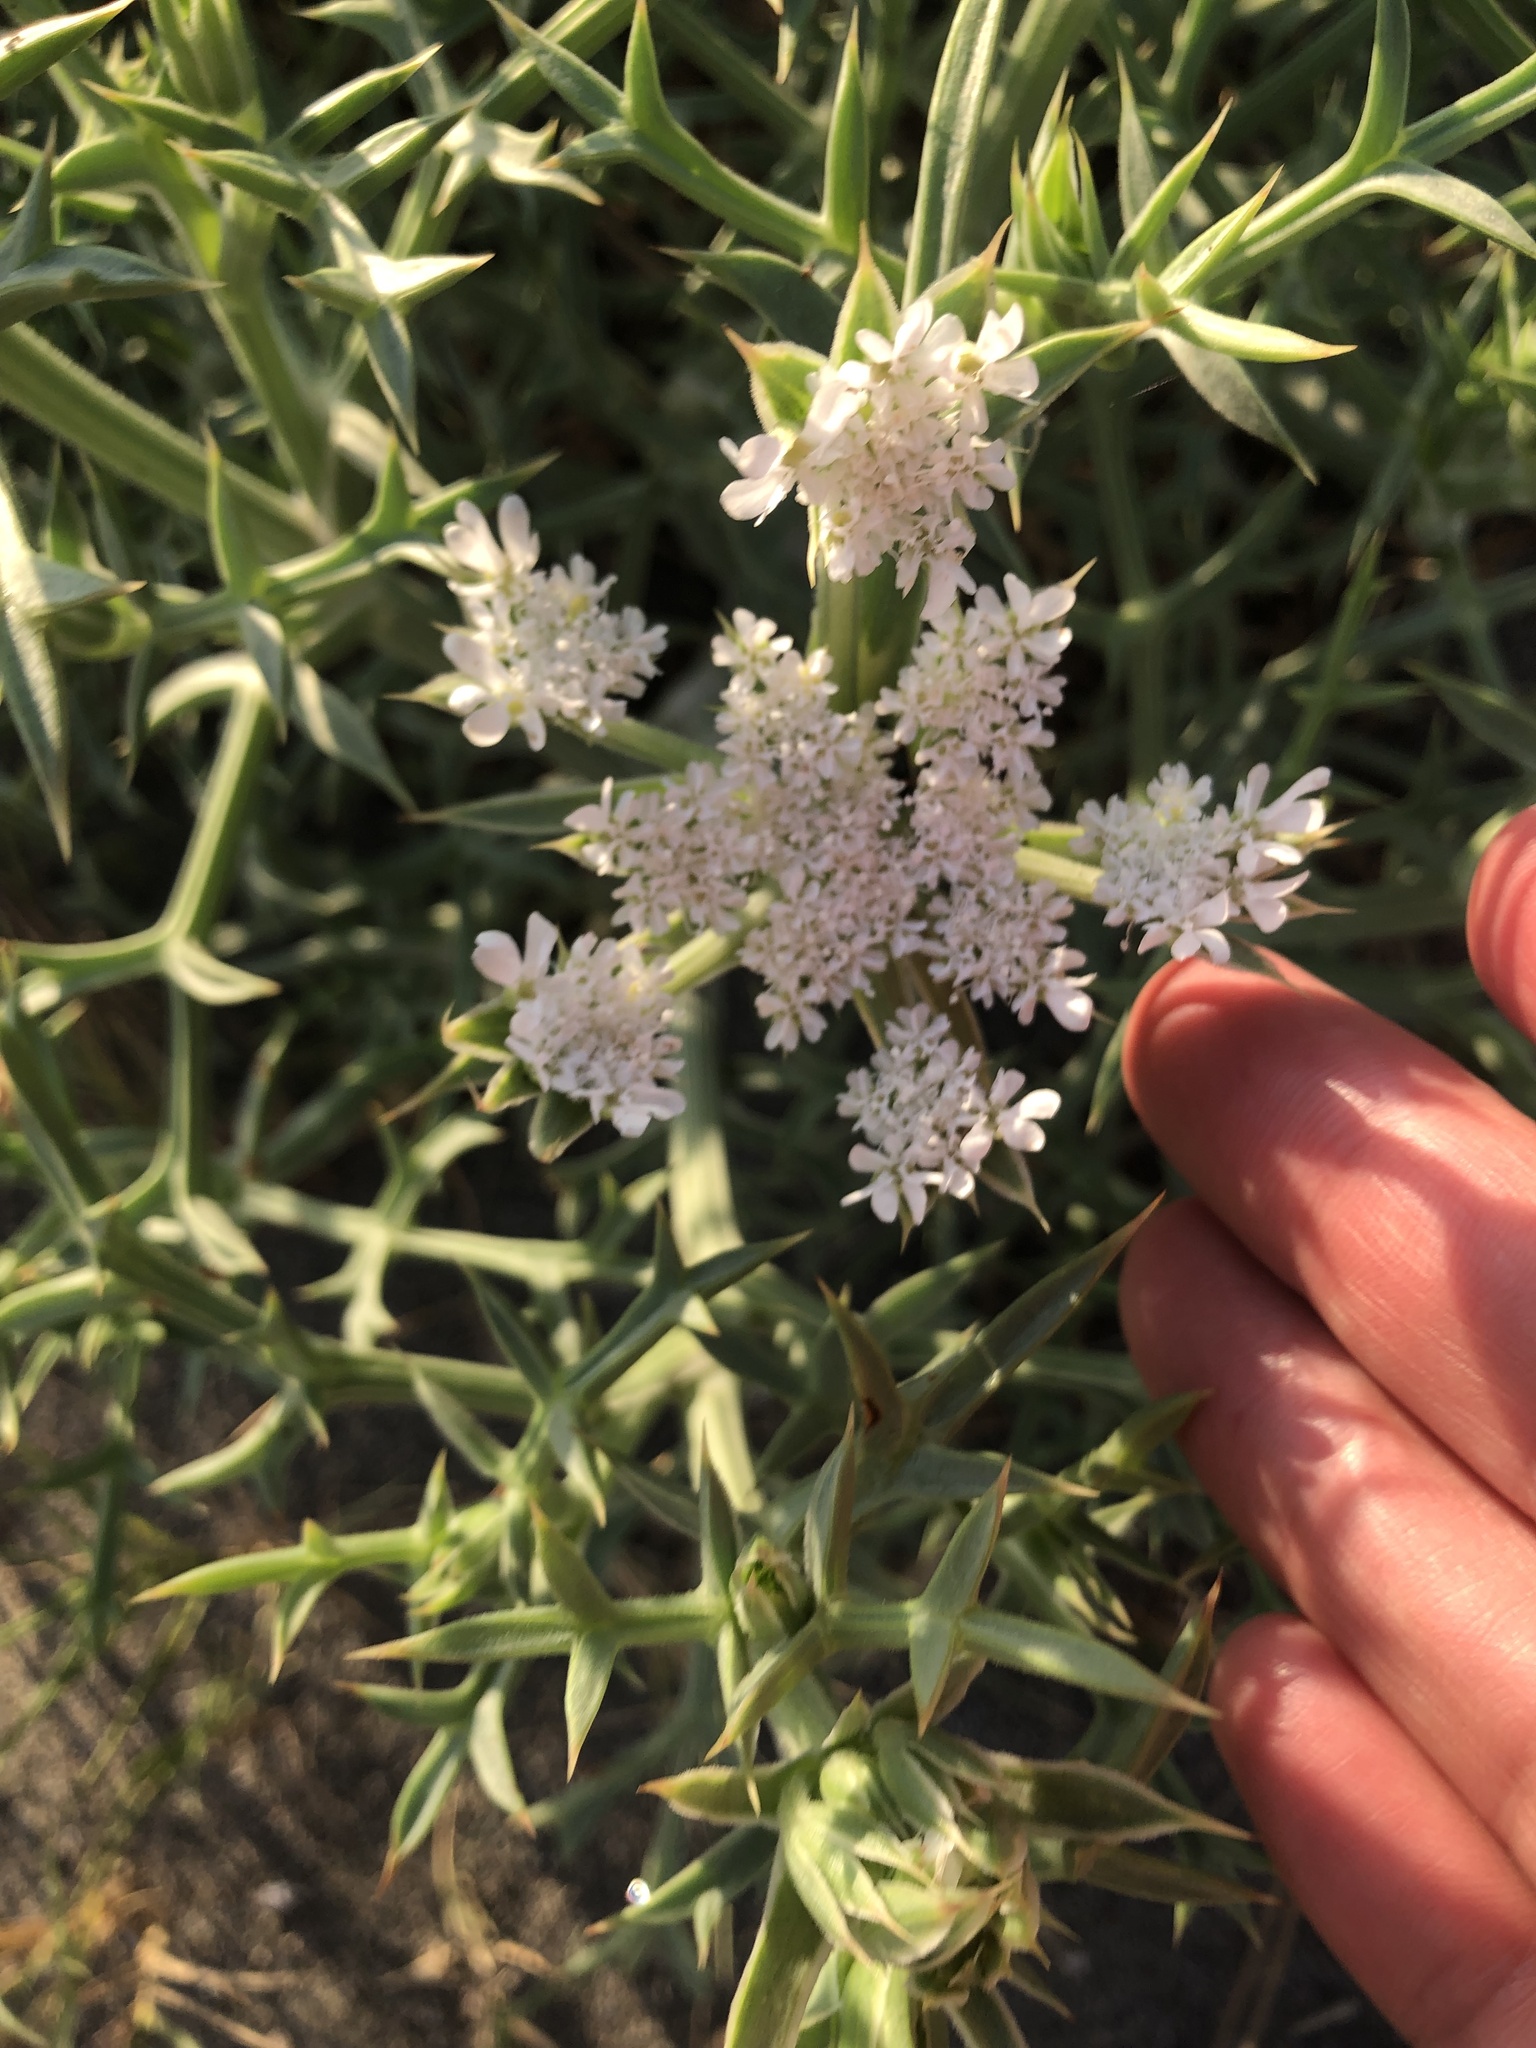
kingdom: Plantae
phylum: Tracheophyta
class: Magnoliopsida
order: Apiales
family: Apiaceae
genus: Echinophora
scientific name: Echinophora spinosa
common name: Prickly samphire
